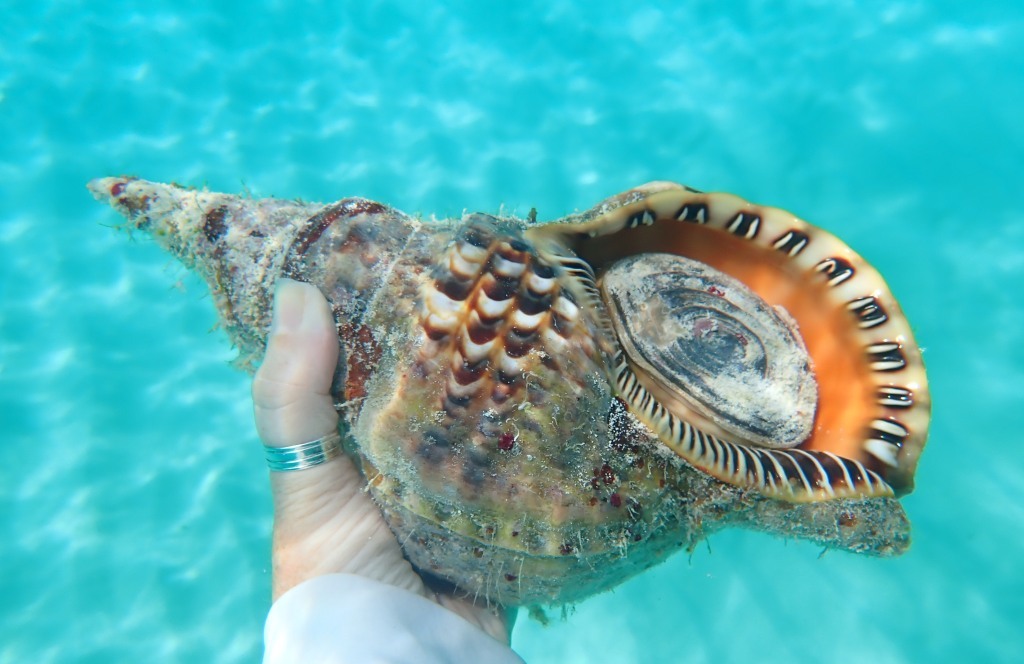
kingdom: Animalia
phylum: Mollusca
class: Gastropoda
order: Littorinimorpha
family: Charoniidae
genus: Charonia
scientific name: Charonia variegata
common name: Atlantic triton
